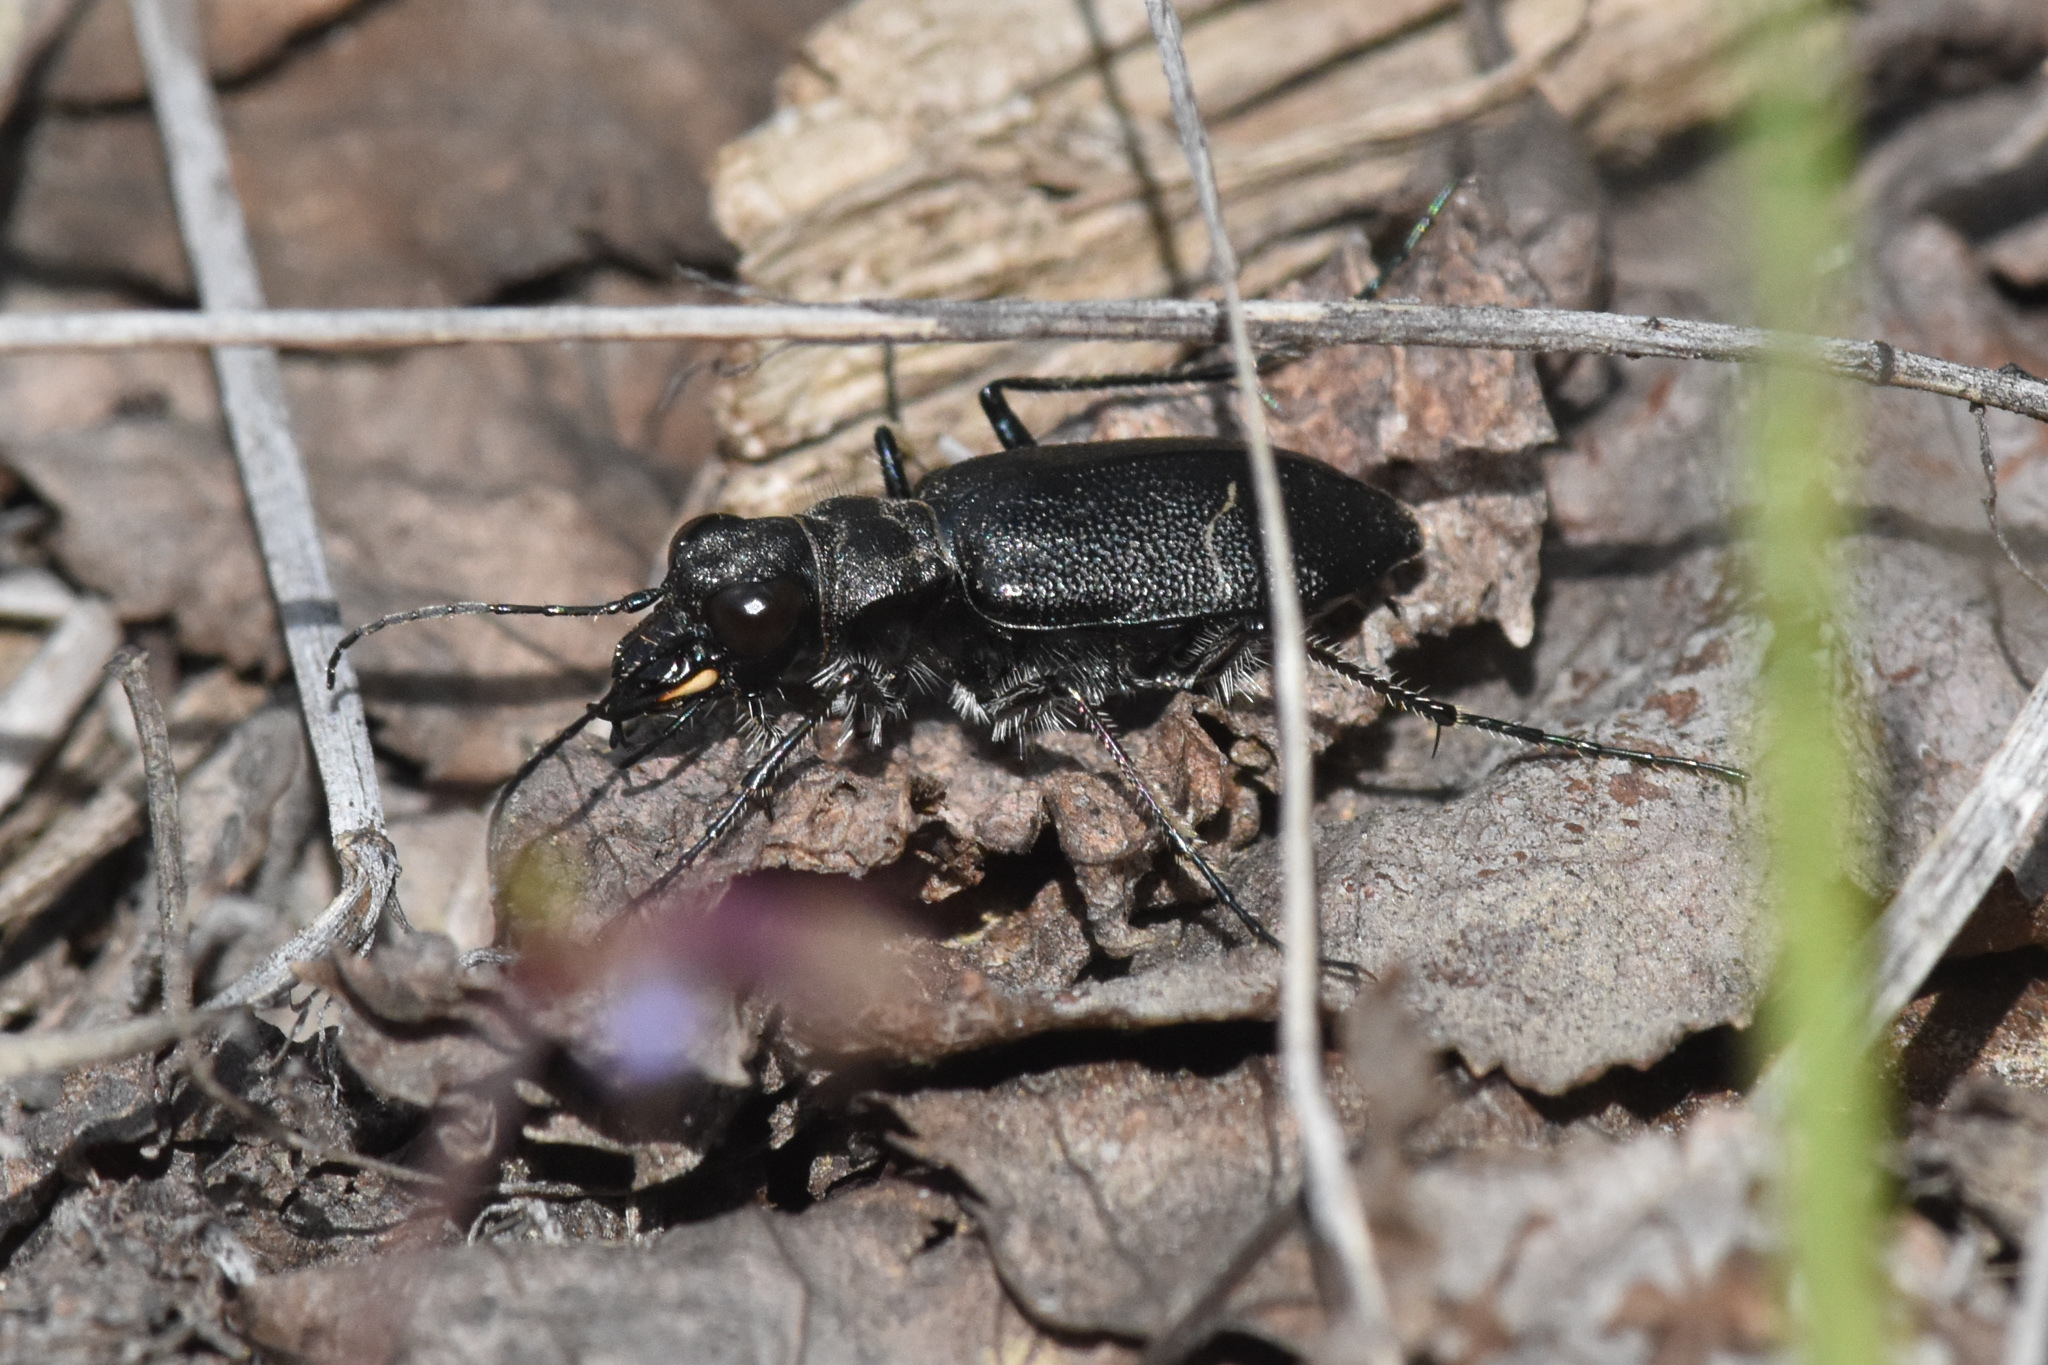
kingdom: Animalia
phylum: Arthropoda
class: Insecta
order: Coleoptera
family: Carabidae
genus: Cicindela
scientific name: Cicindela longilabris
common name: Boreal long-lipped tiger beetle
